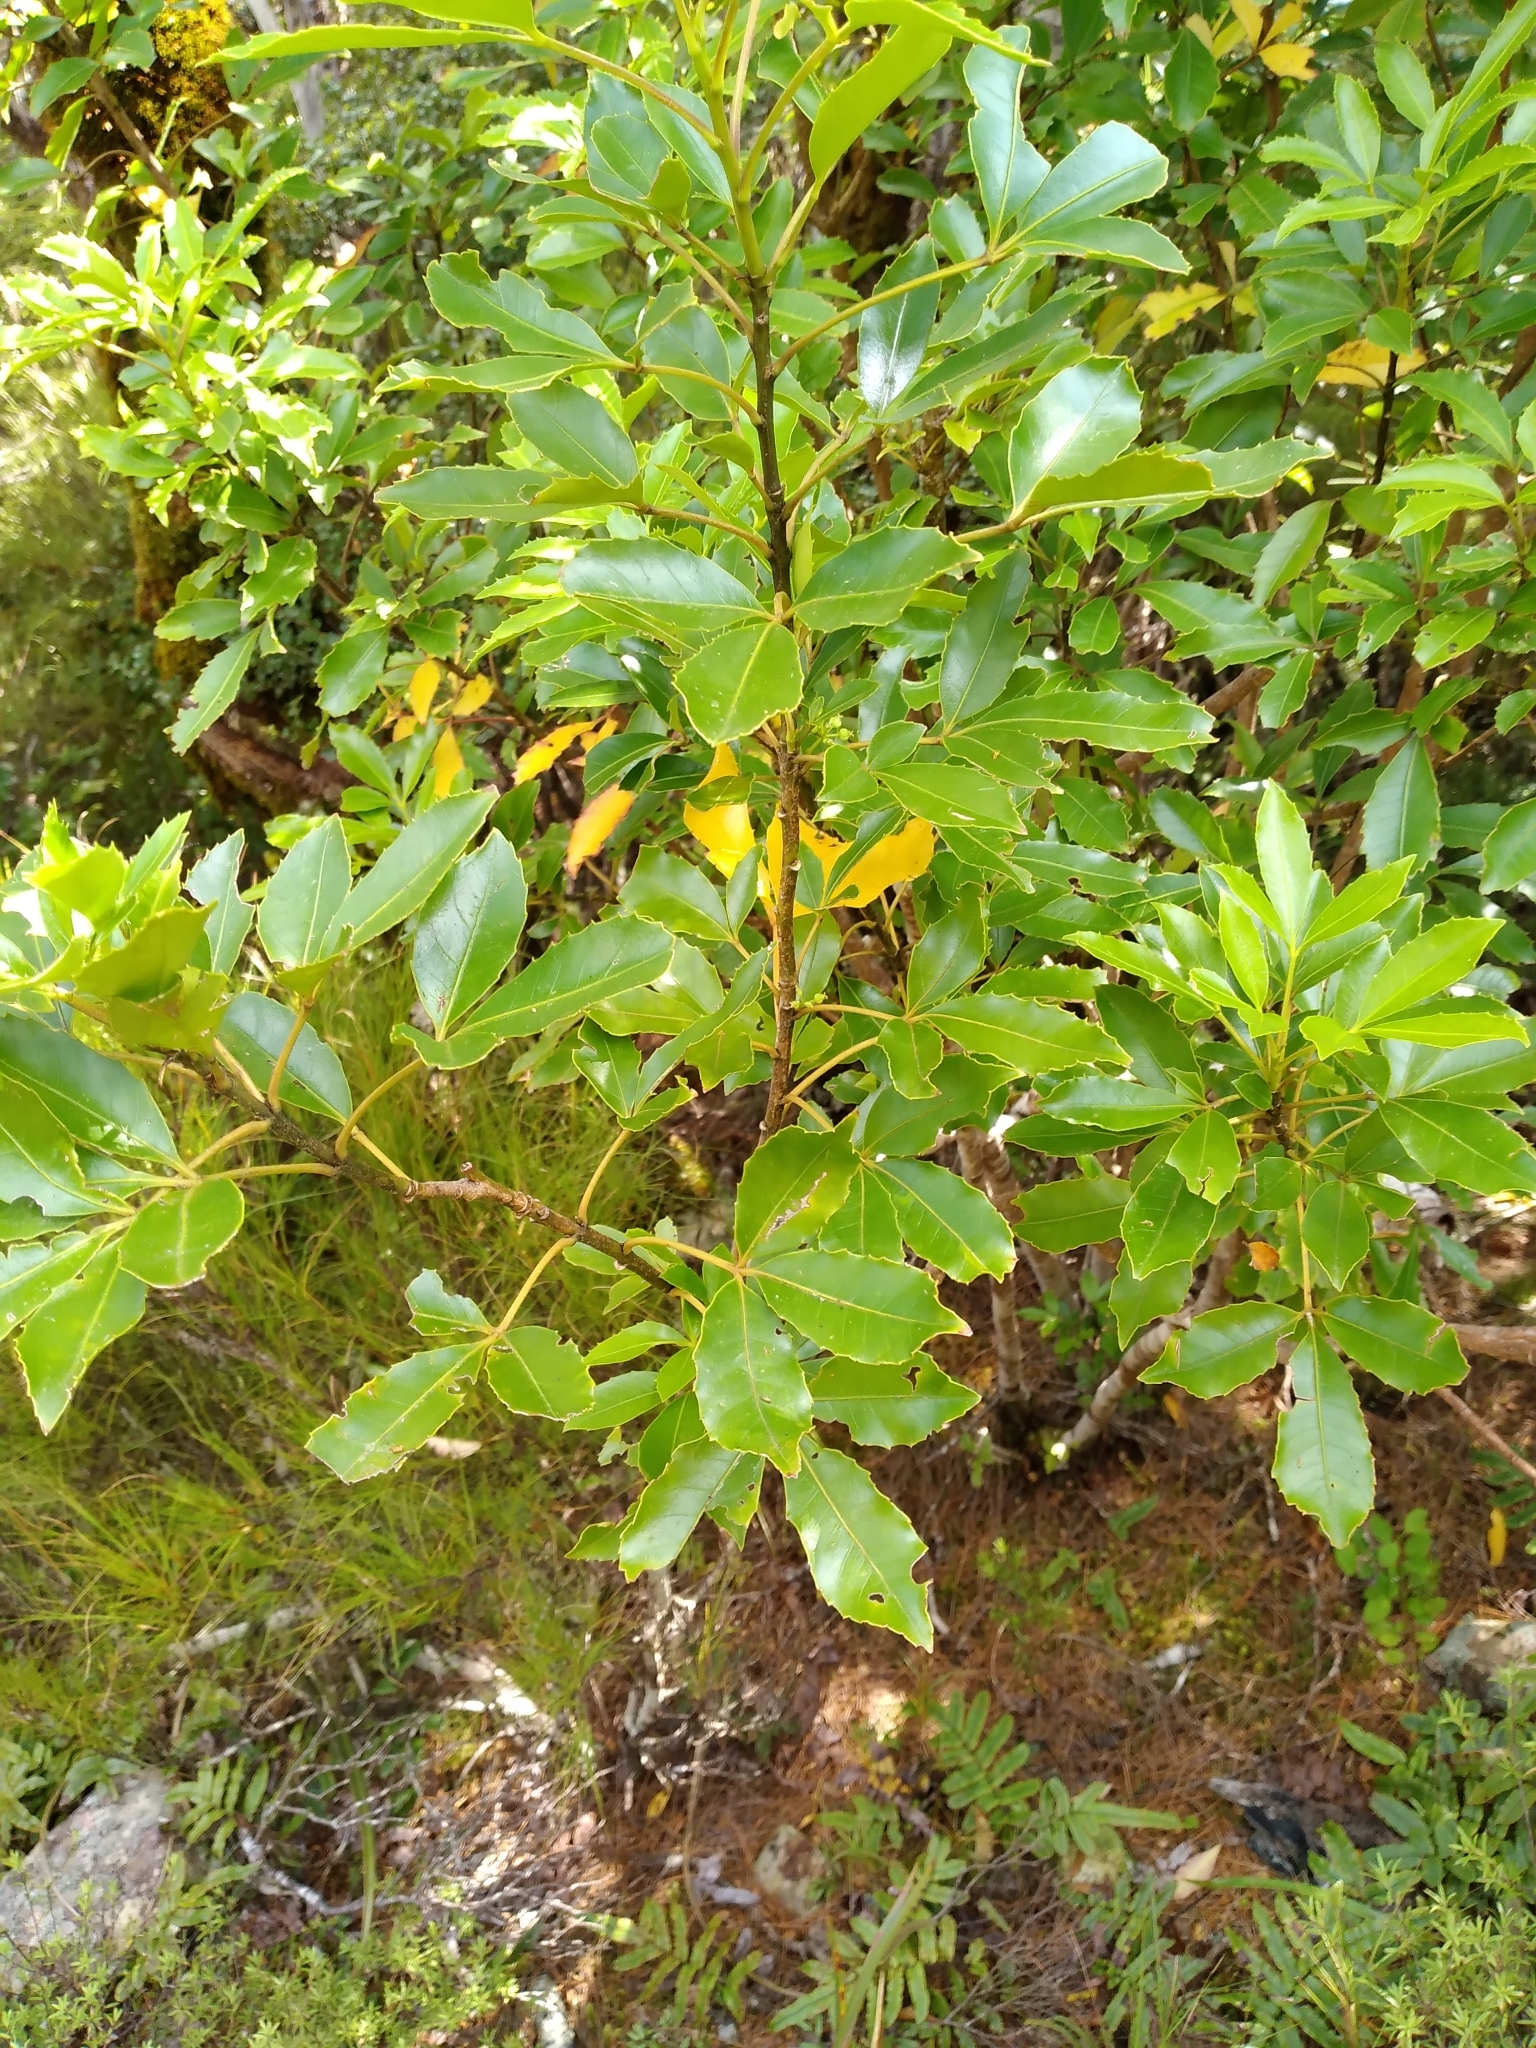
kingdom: Plantae
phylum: Tracheophyta
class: Magnoliopsida
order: Apiales
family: Araliaceae
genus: Raukaua
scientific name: Raukaua simplex
